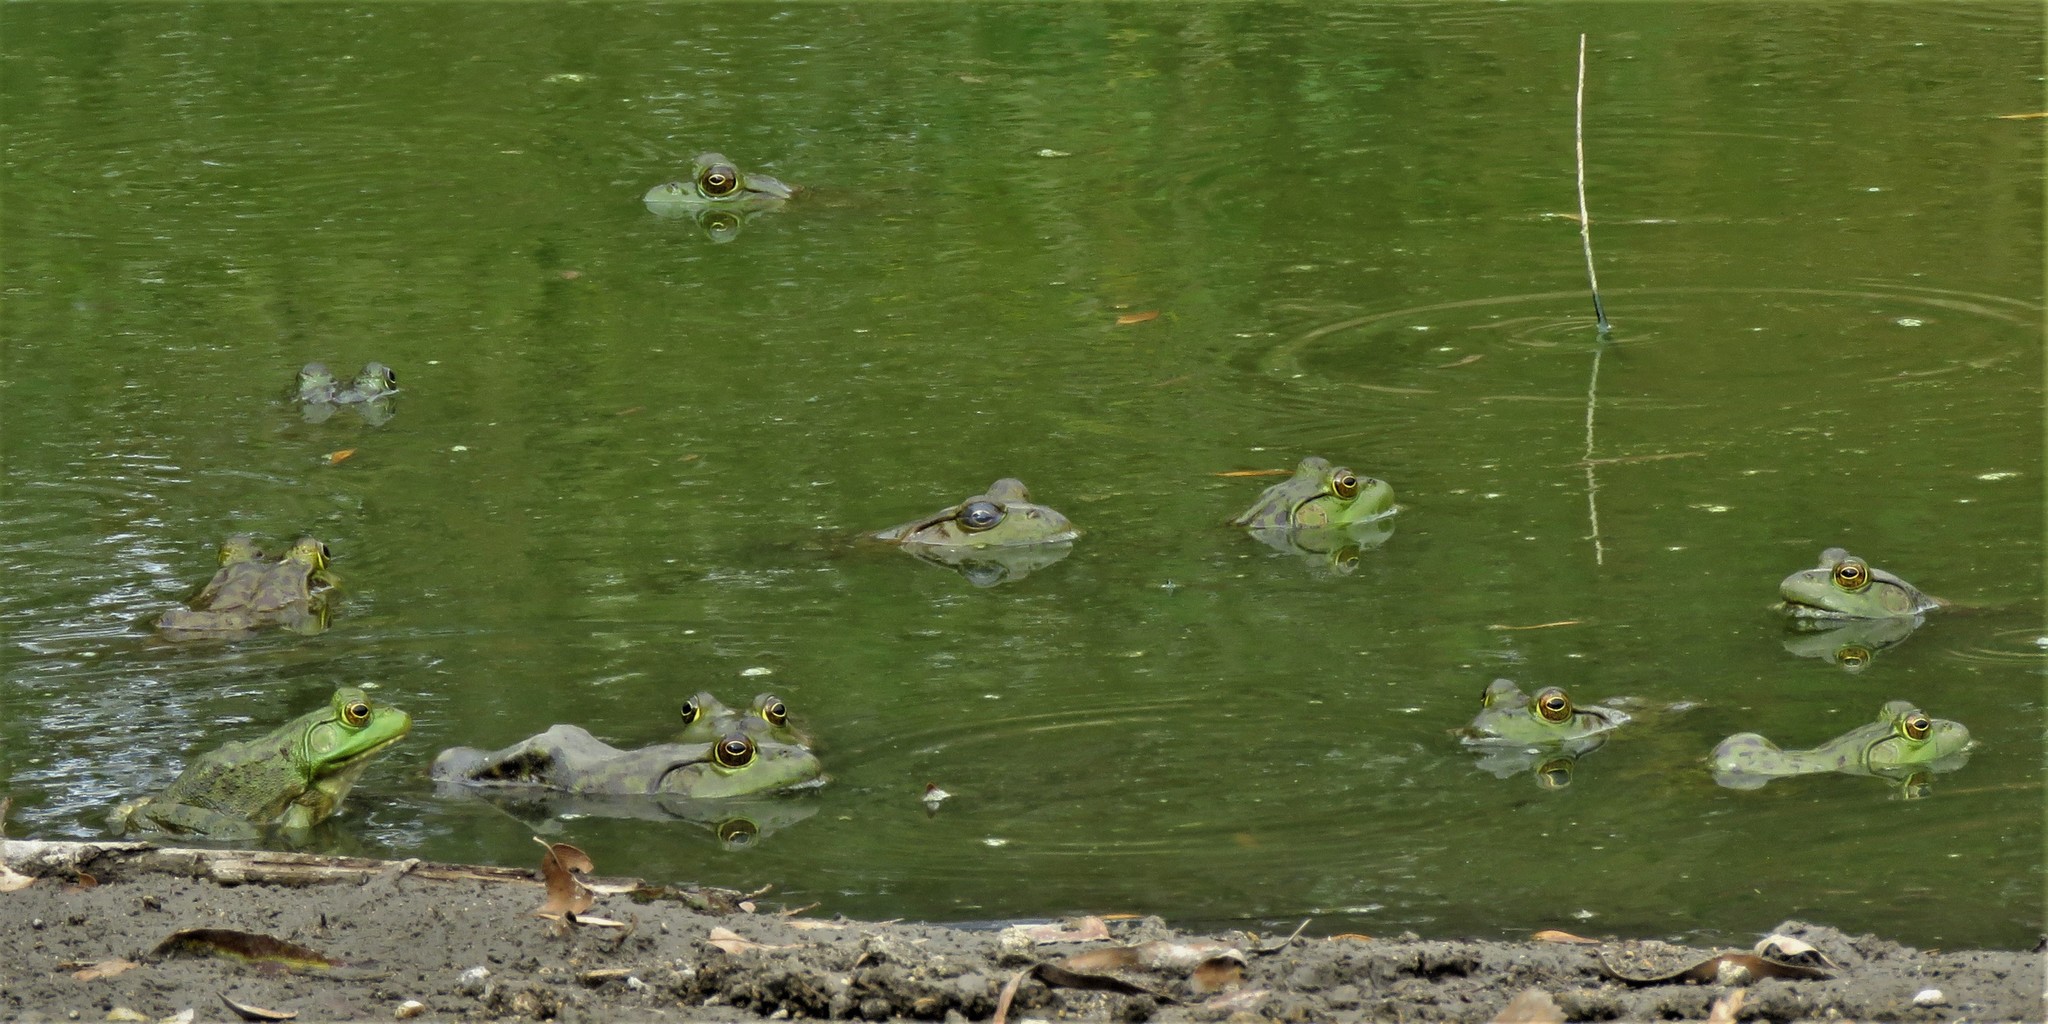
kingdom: Animalia
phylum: Chordata
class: Amphibia
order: Anura
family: Ranidae
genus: Lithobates
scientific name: Lithobates catesbeianus
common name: American bullfrog
